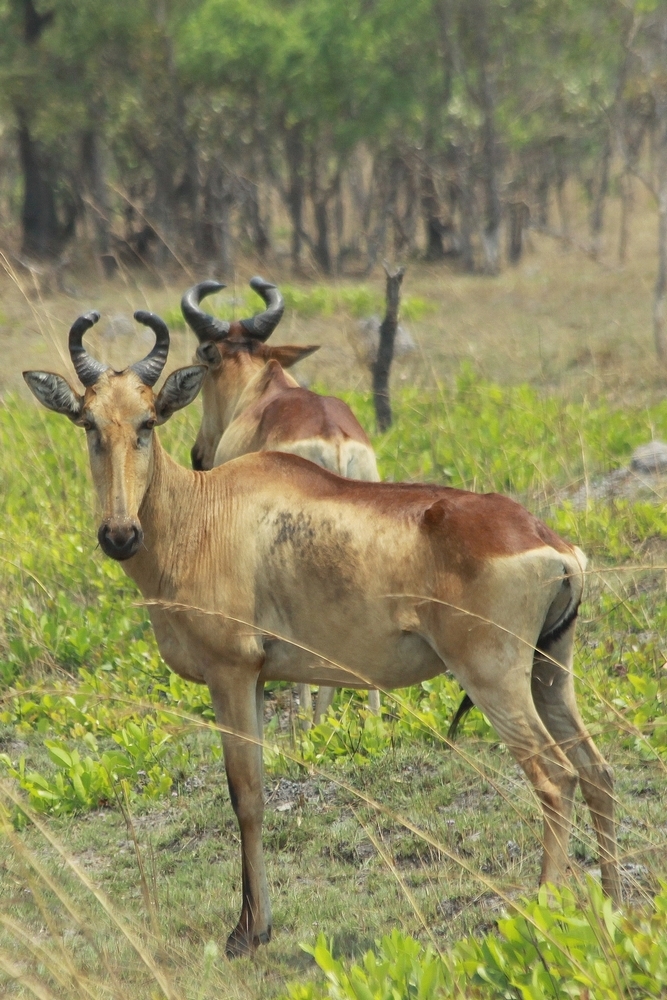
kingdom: Animalia
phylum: Chordata
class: Mammalia
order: Artiodactyla
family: Bovidae
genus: Alcelaphus
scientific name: Alcelaphus buselaphus
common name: Hartebeest
